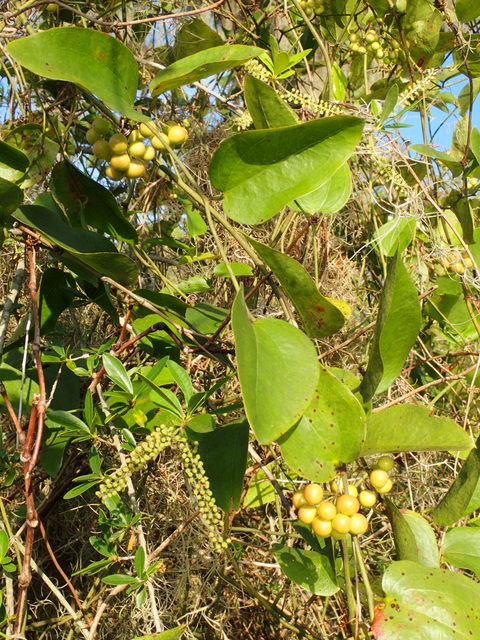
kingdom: Plantae
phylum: Tracheophyta
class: Liliopsida
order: Liliales
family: Smilacaceae
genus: Smilax
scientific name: Smilax walteri
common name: Coral greenbrier
